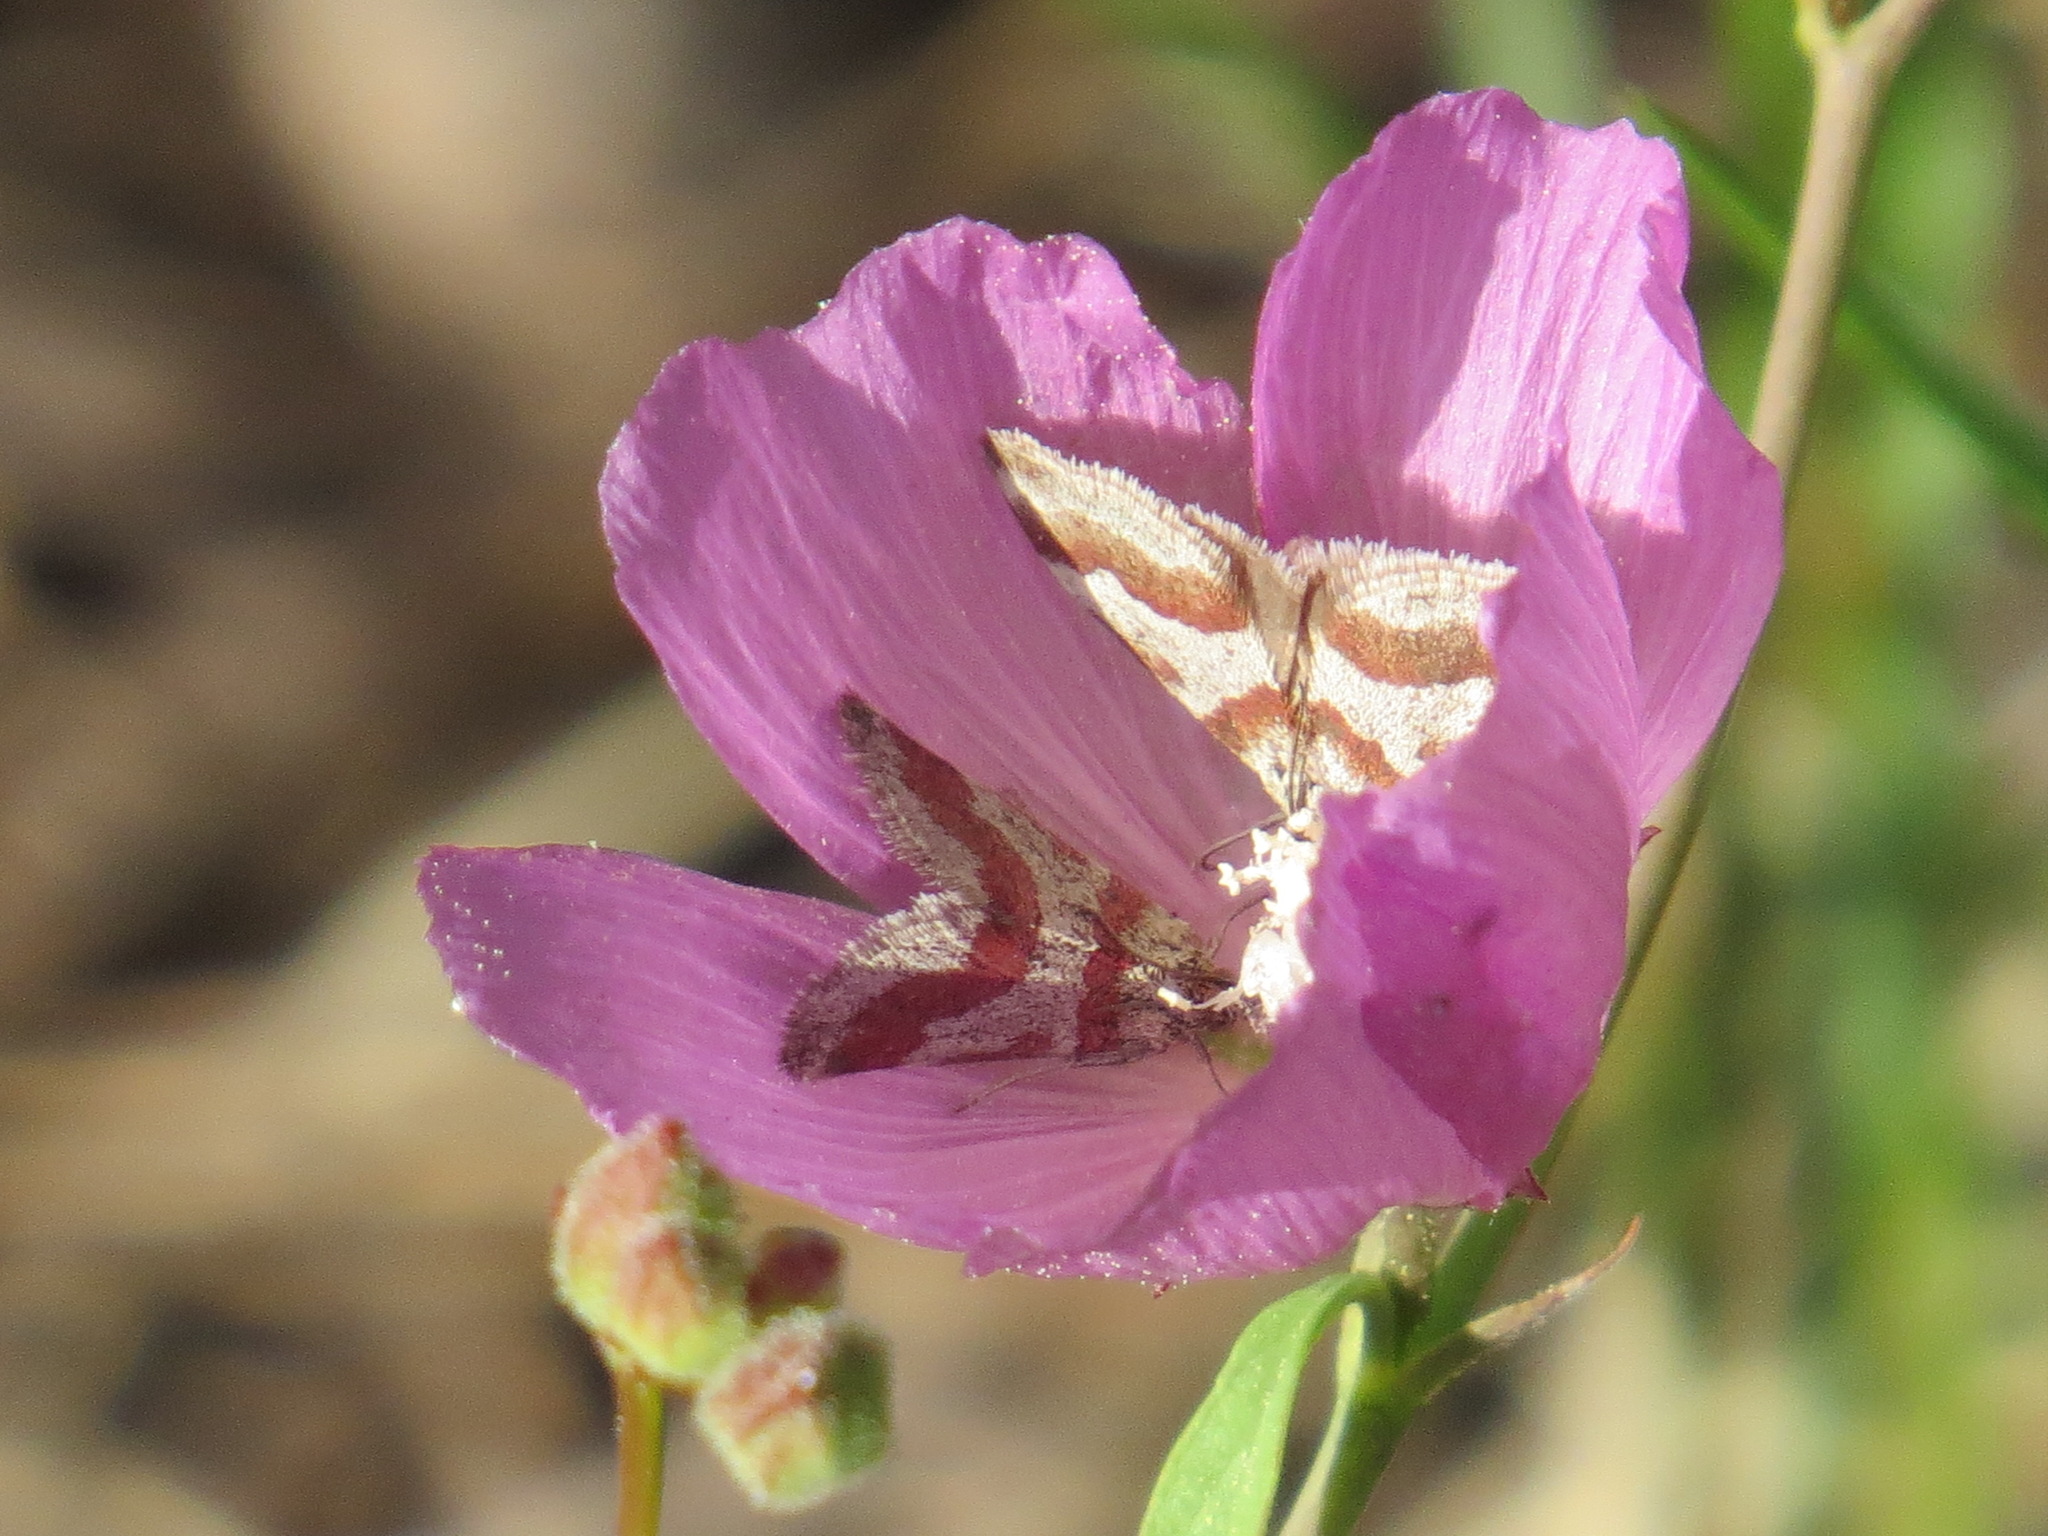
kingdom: Animalia
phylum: Arthropoda
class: Insecta
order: Lepidoptera
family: Crambidae
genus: Noctuelia
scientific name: Noctuelia Mimoschinia rufofascialis
